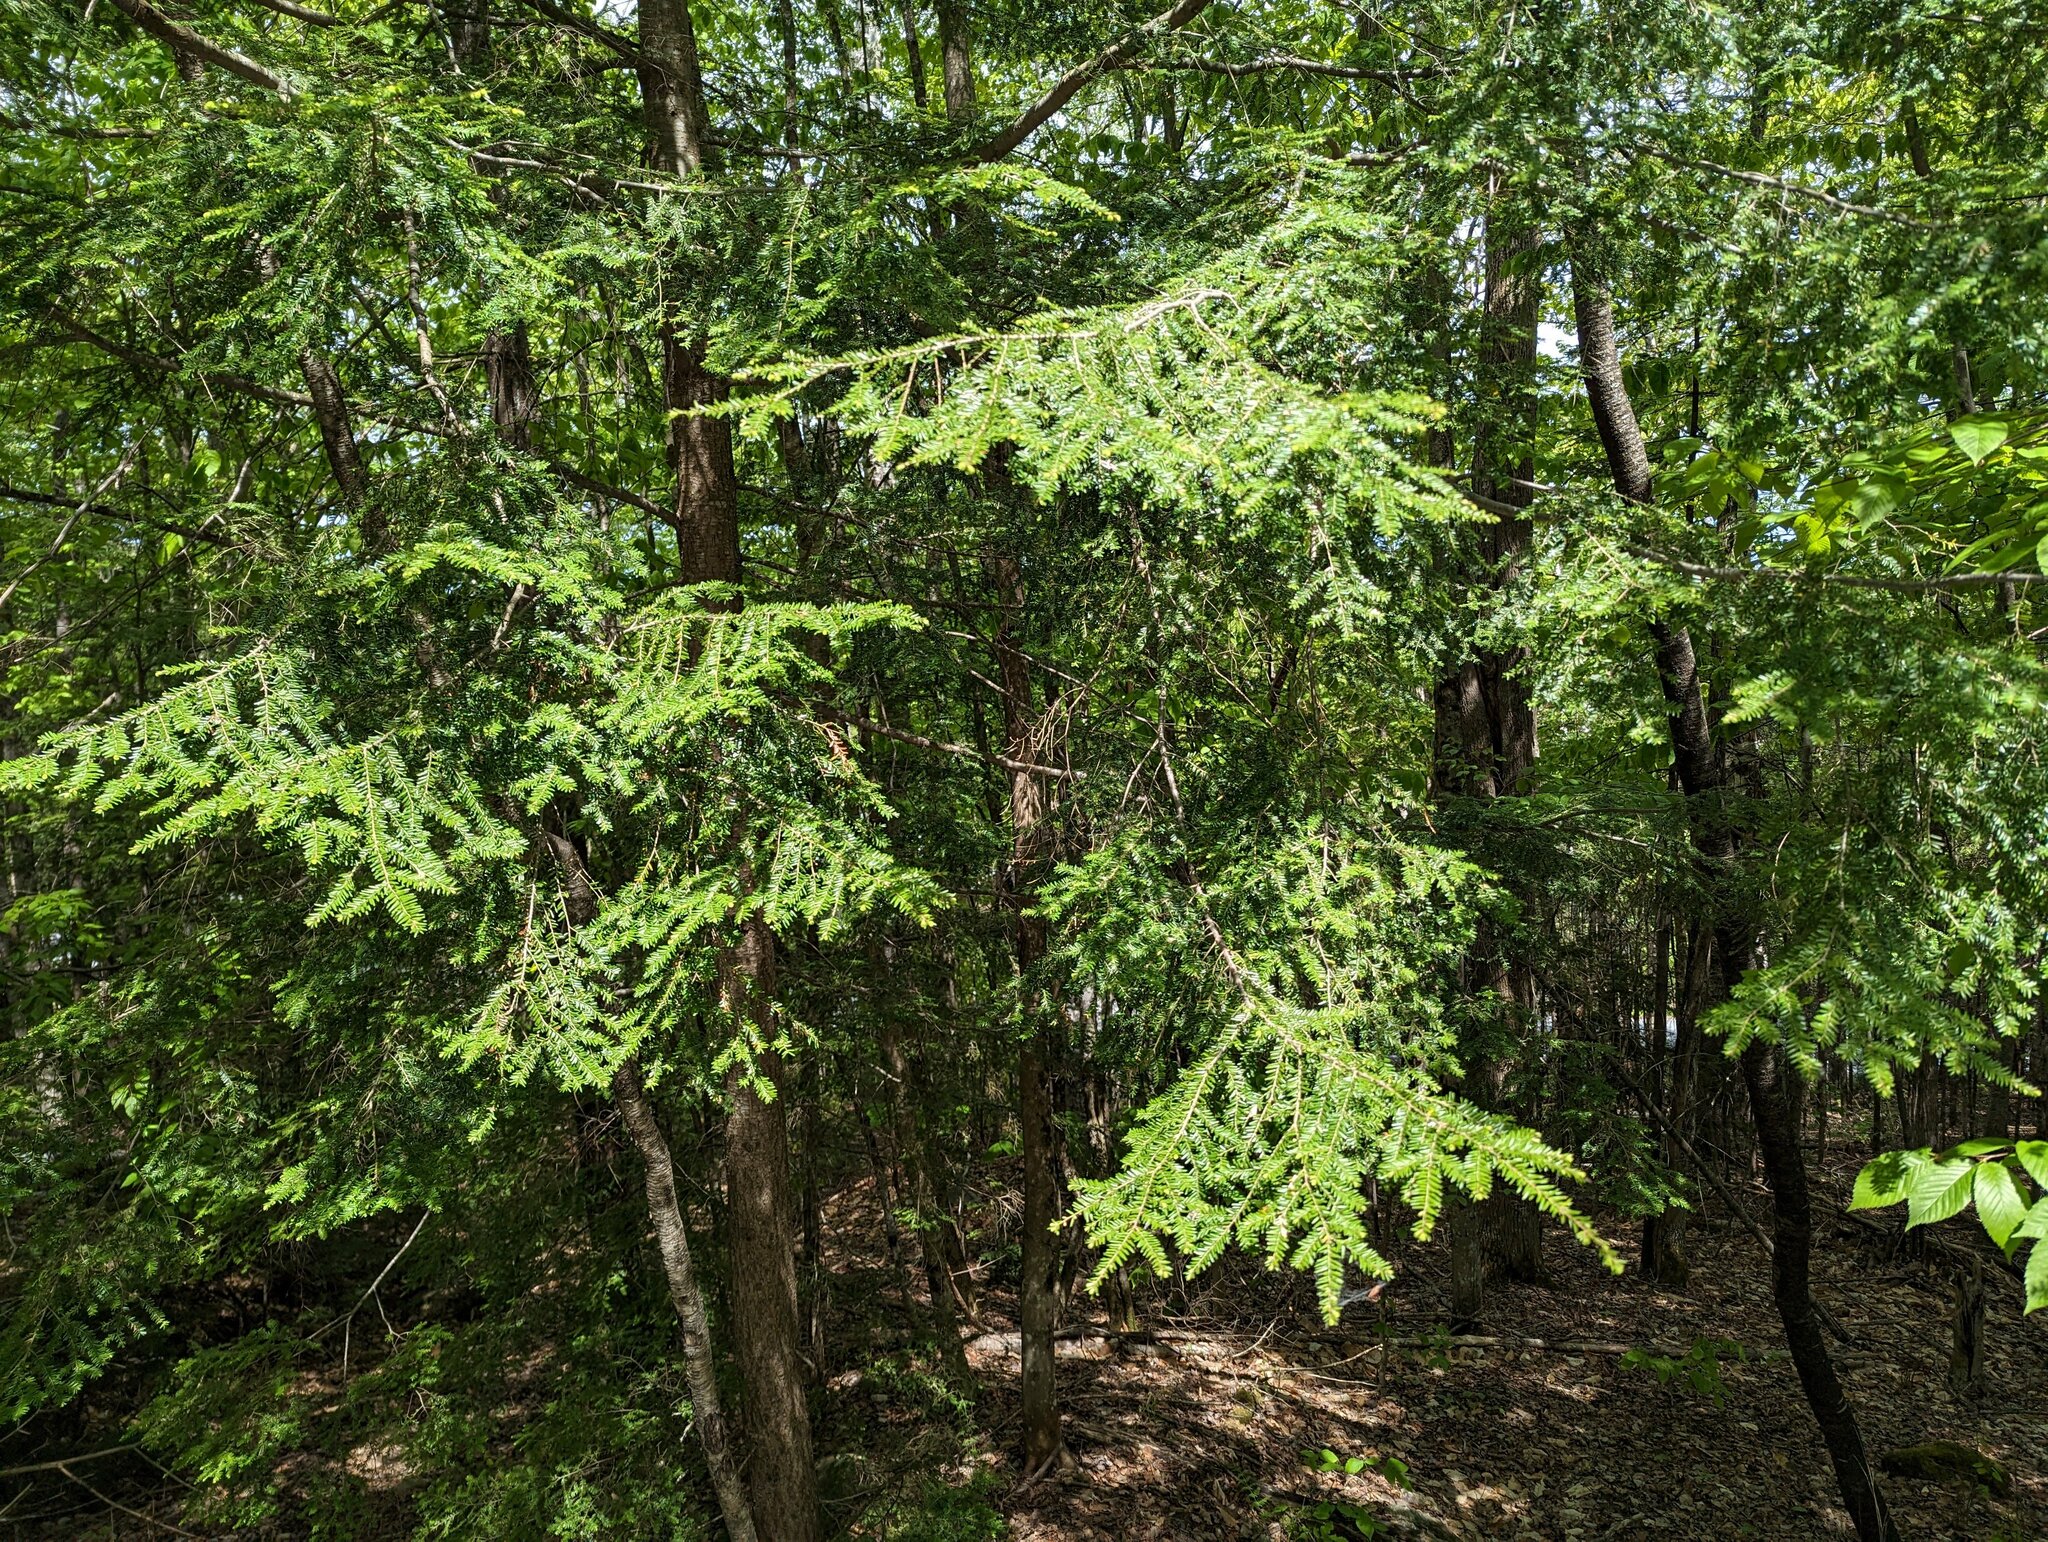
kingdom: Plantae
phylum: Tracheophyta
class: Pinopsida
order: Pinales
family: Pinaceae
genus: Tsuga
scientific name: Tsuga canadensis
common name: Eastern hemlock
